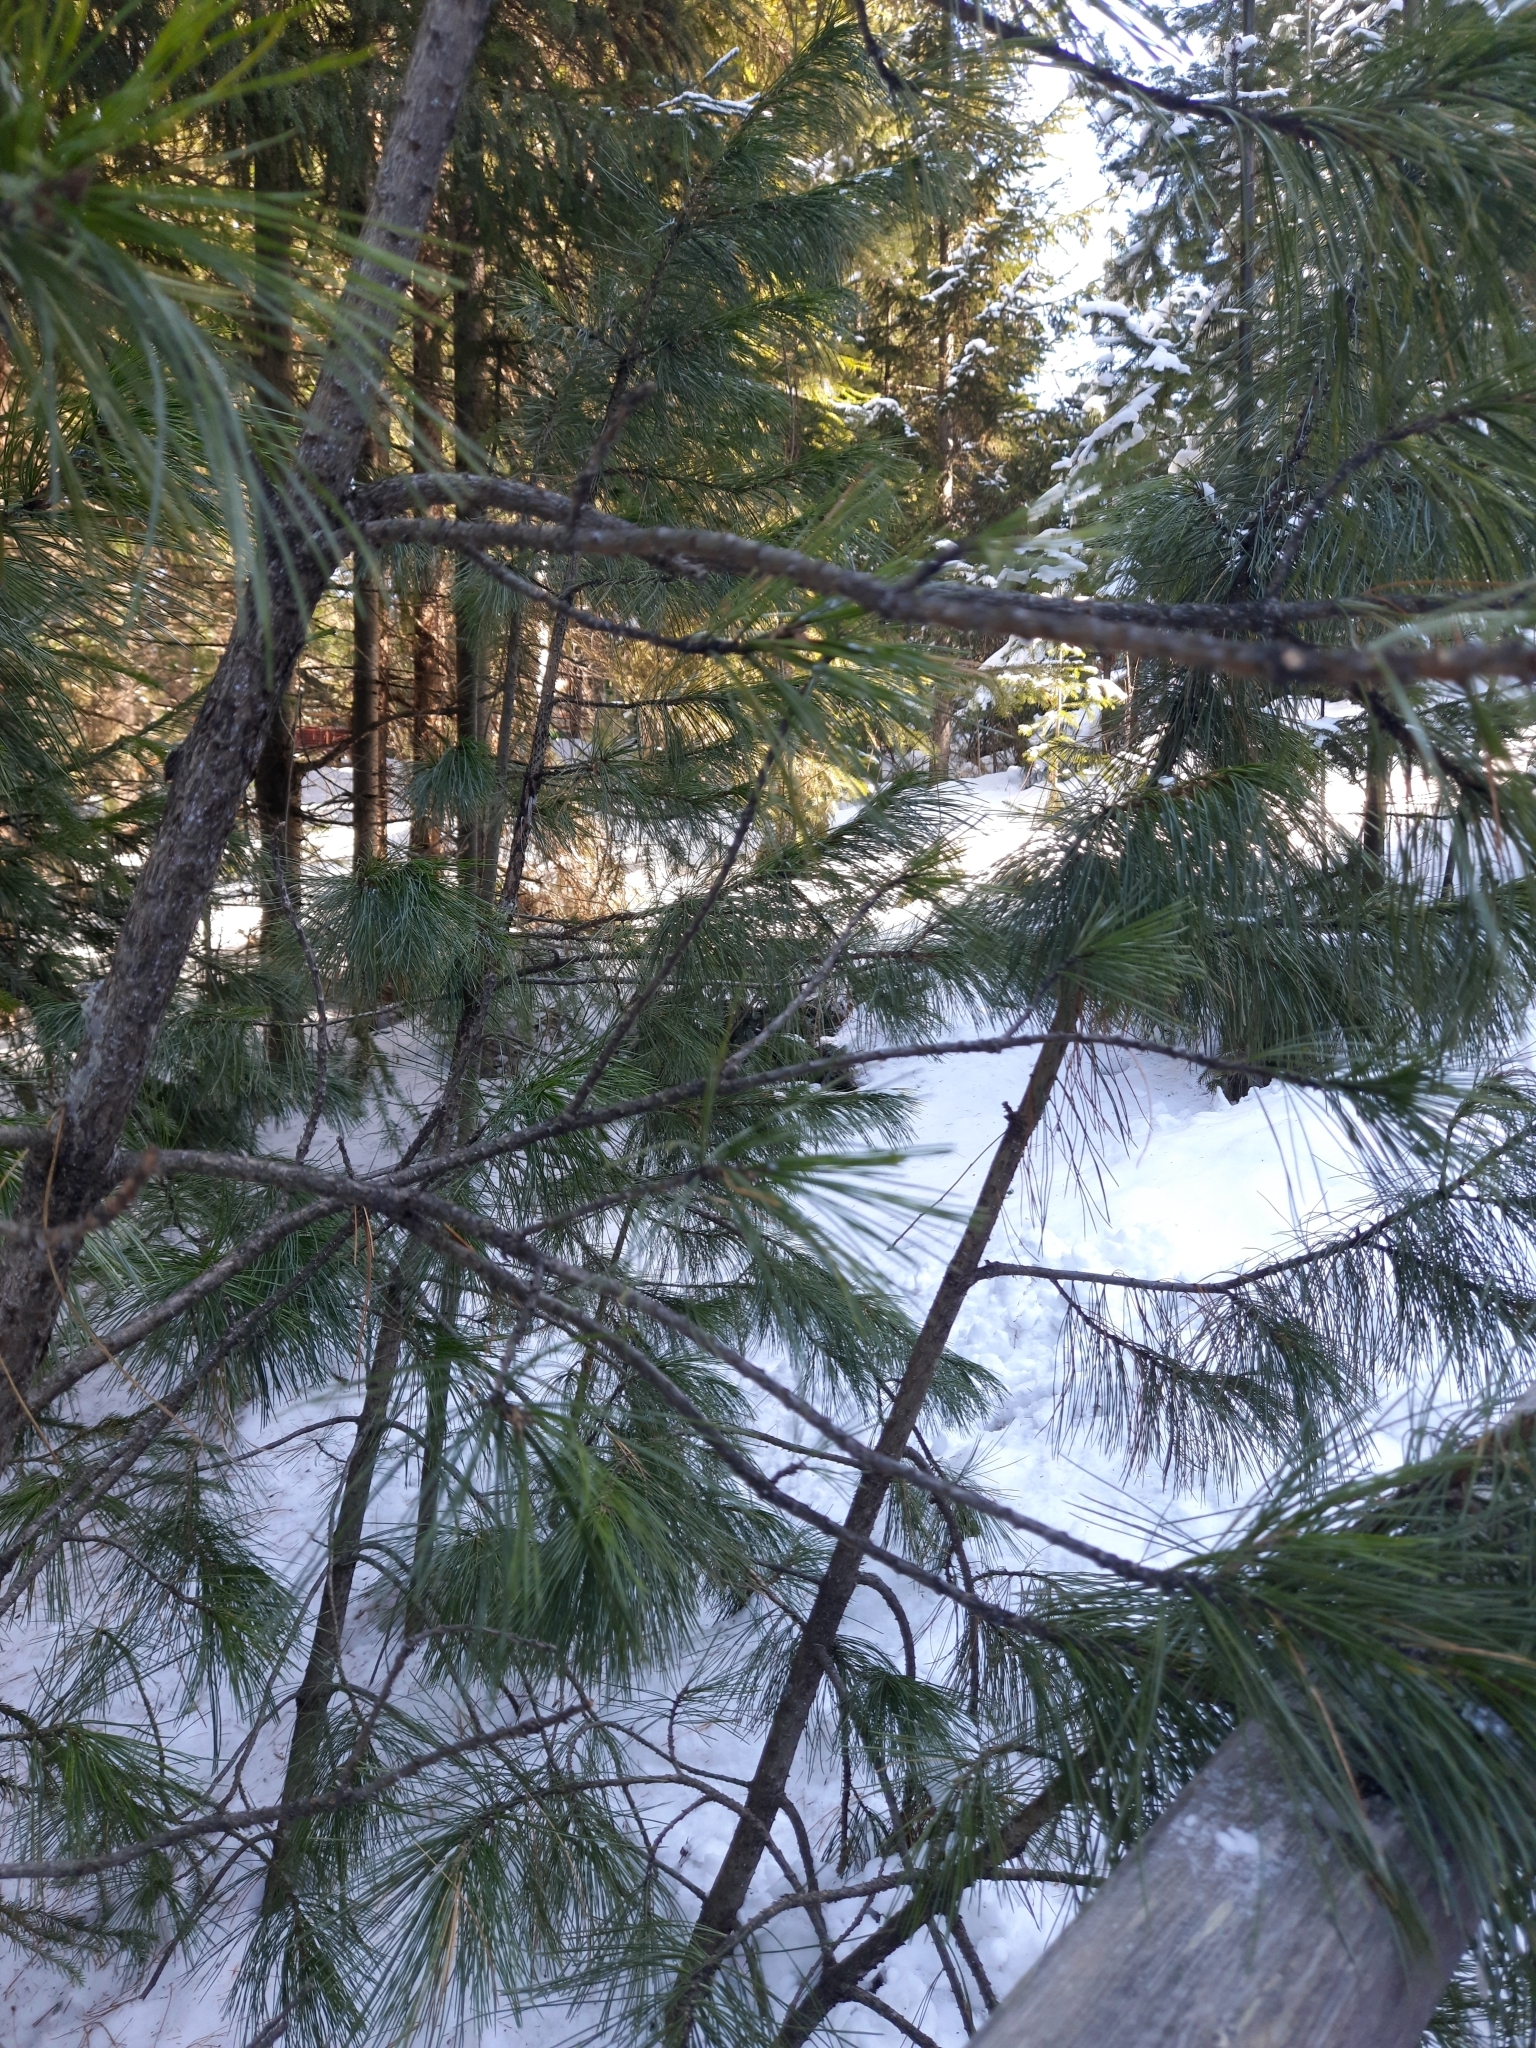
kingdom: Plantae
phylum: Tracheophyta
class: Pinopsida
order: Pinales
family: Pinaceae
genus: Pinus
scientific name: Pinus sibirica
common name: Siberian pine
